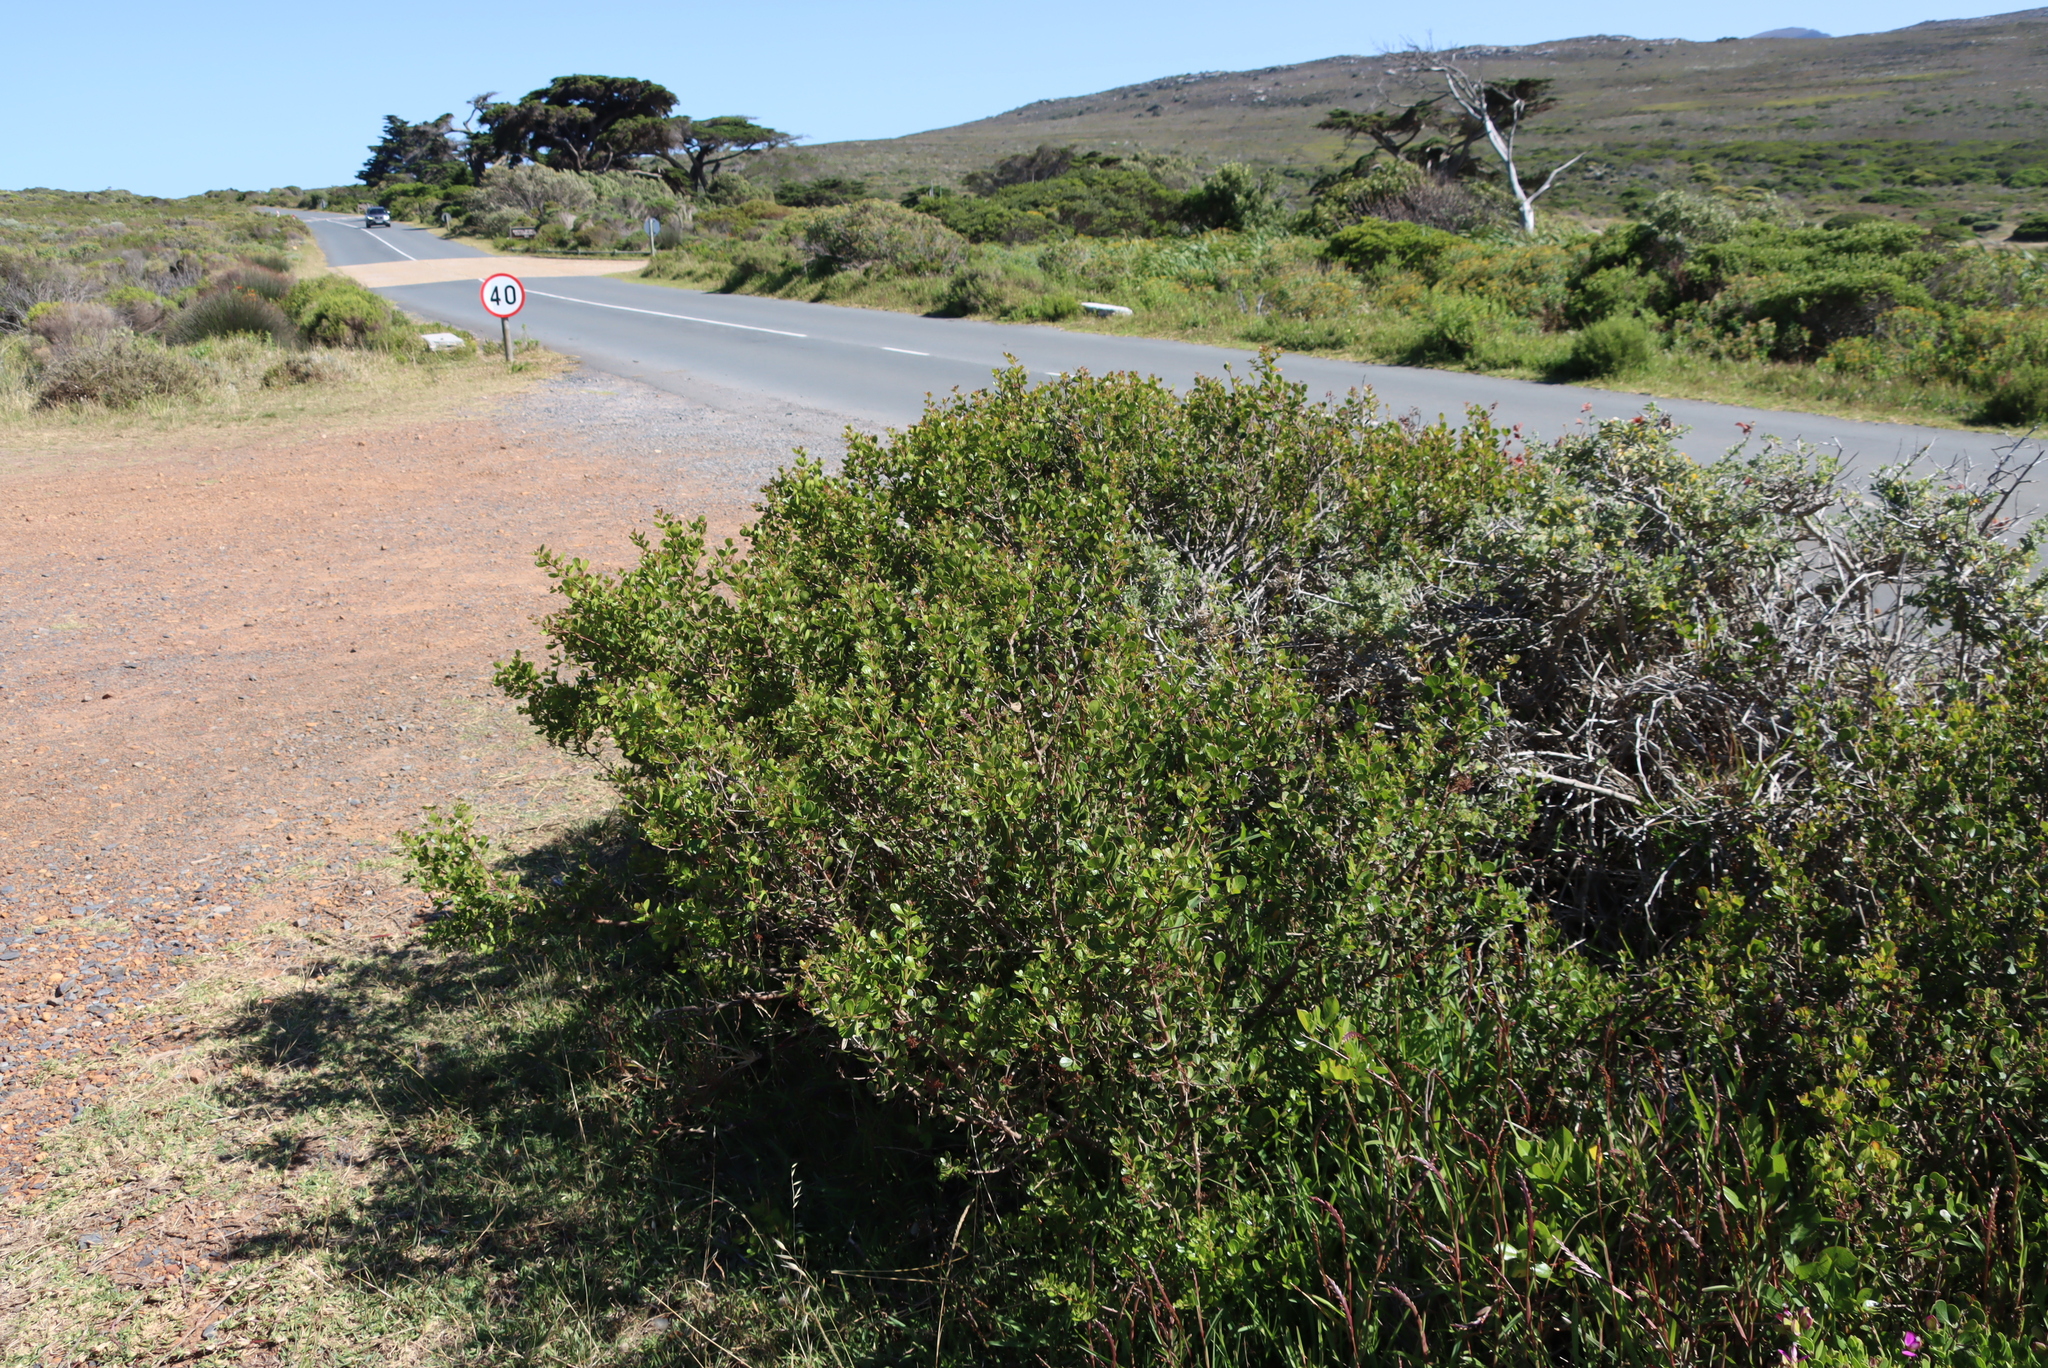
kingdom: Plantae
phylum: Tracheophyta
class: Magnoliopsida
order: Sapindales
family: Anacardiaceae
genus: Searsia
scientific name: Searsia lucida
